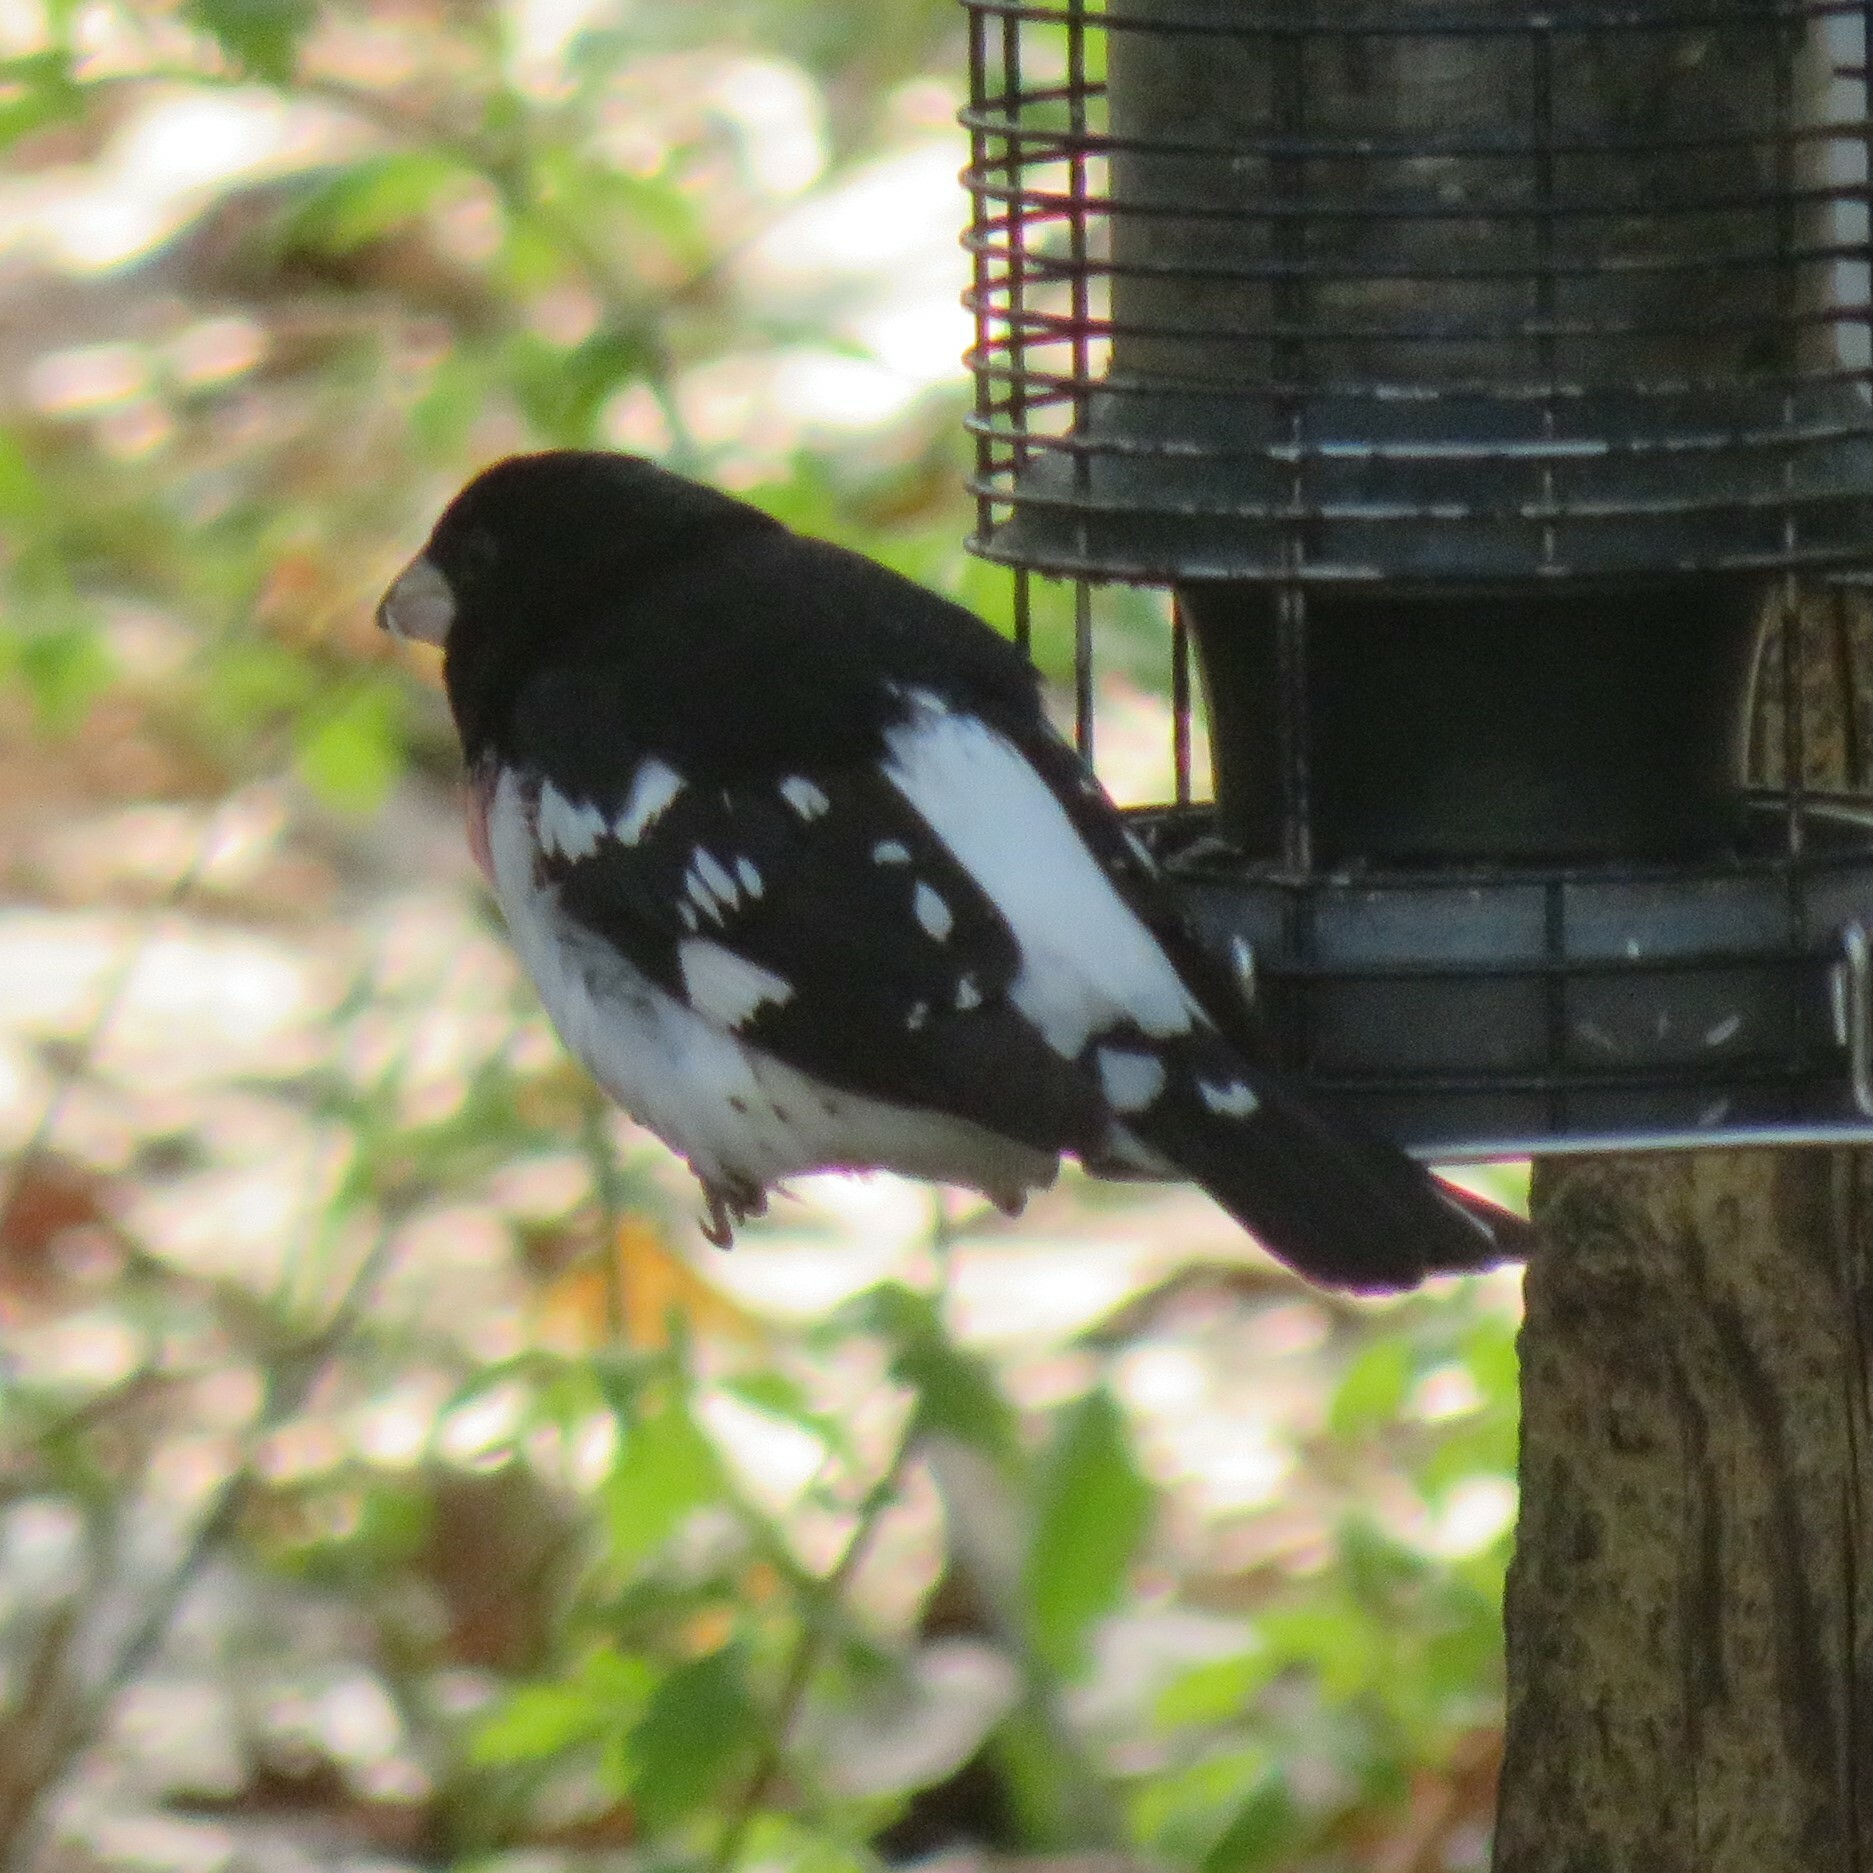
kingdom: Animalia
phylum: Chordata
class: Aves
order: Passeriformes
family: Cardinalidae
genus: Pheucticus
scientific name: Pheucticus ludovicianus
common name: Rose-breasted grosbeak
